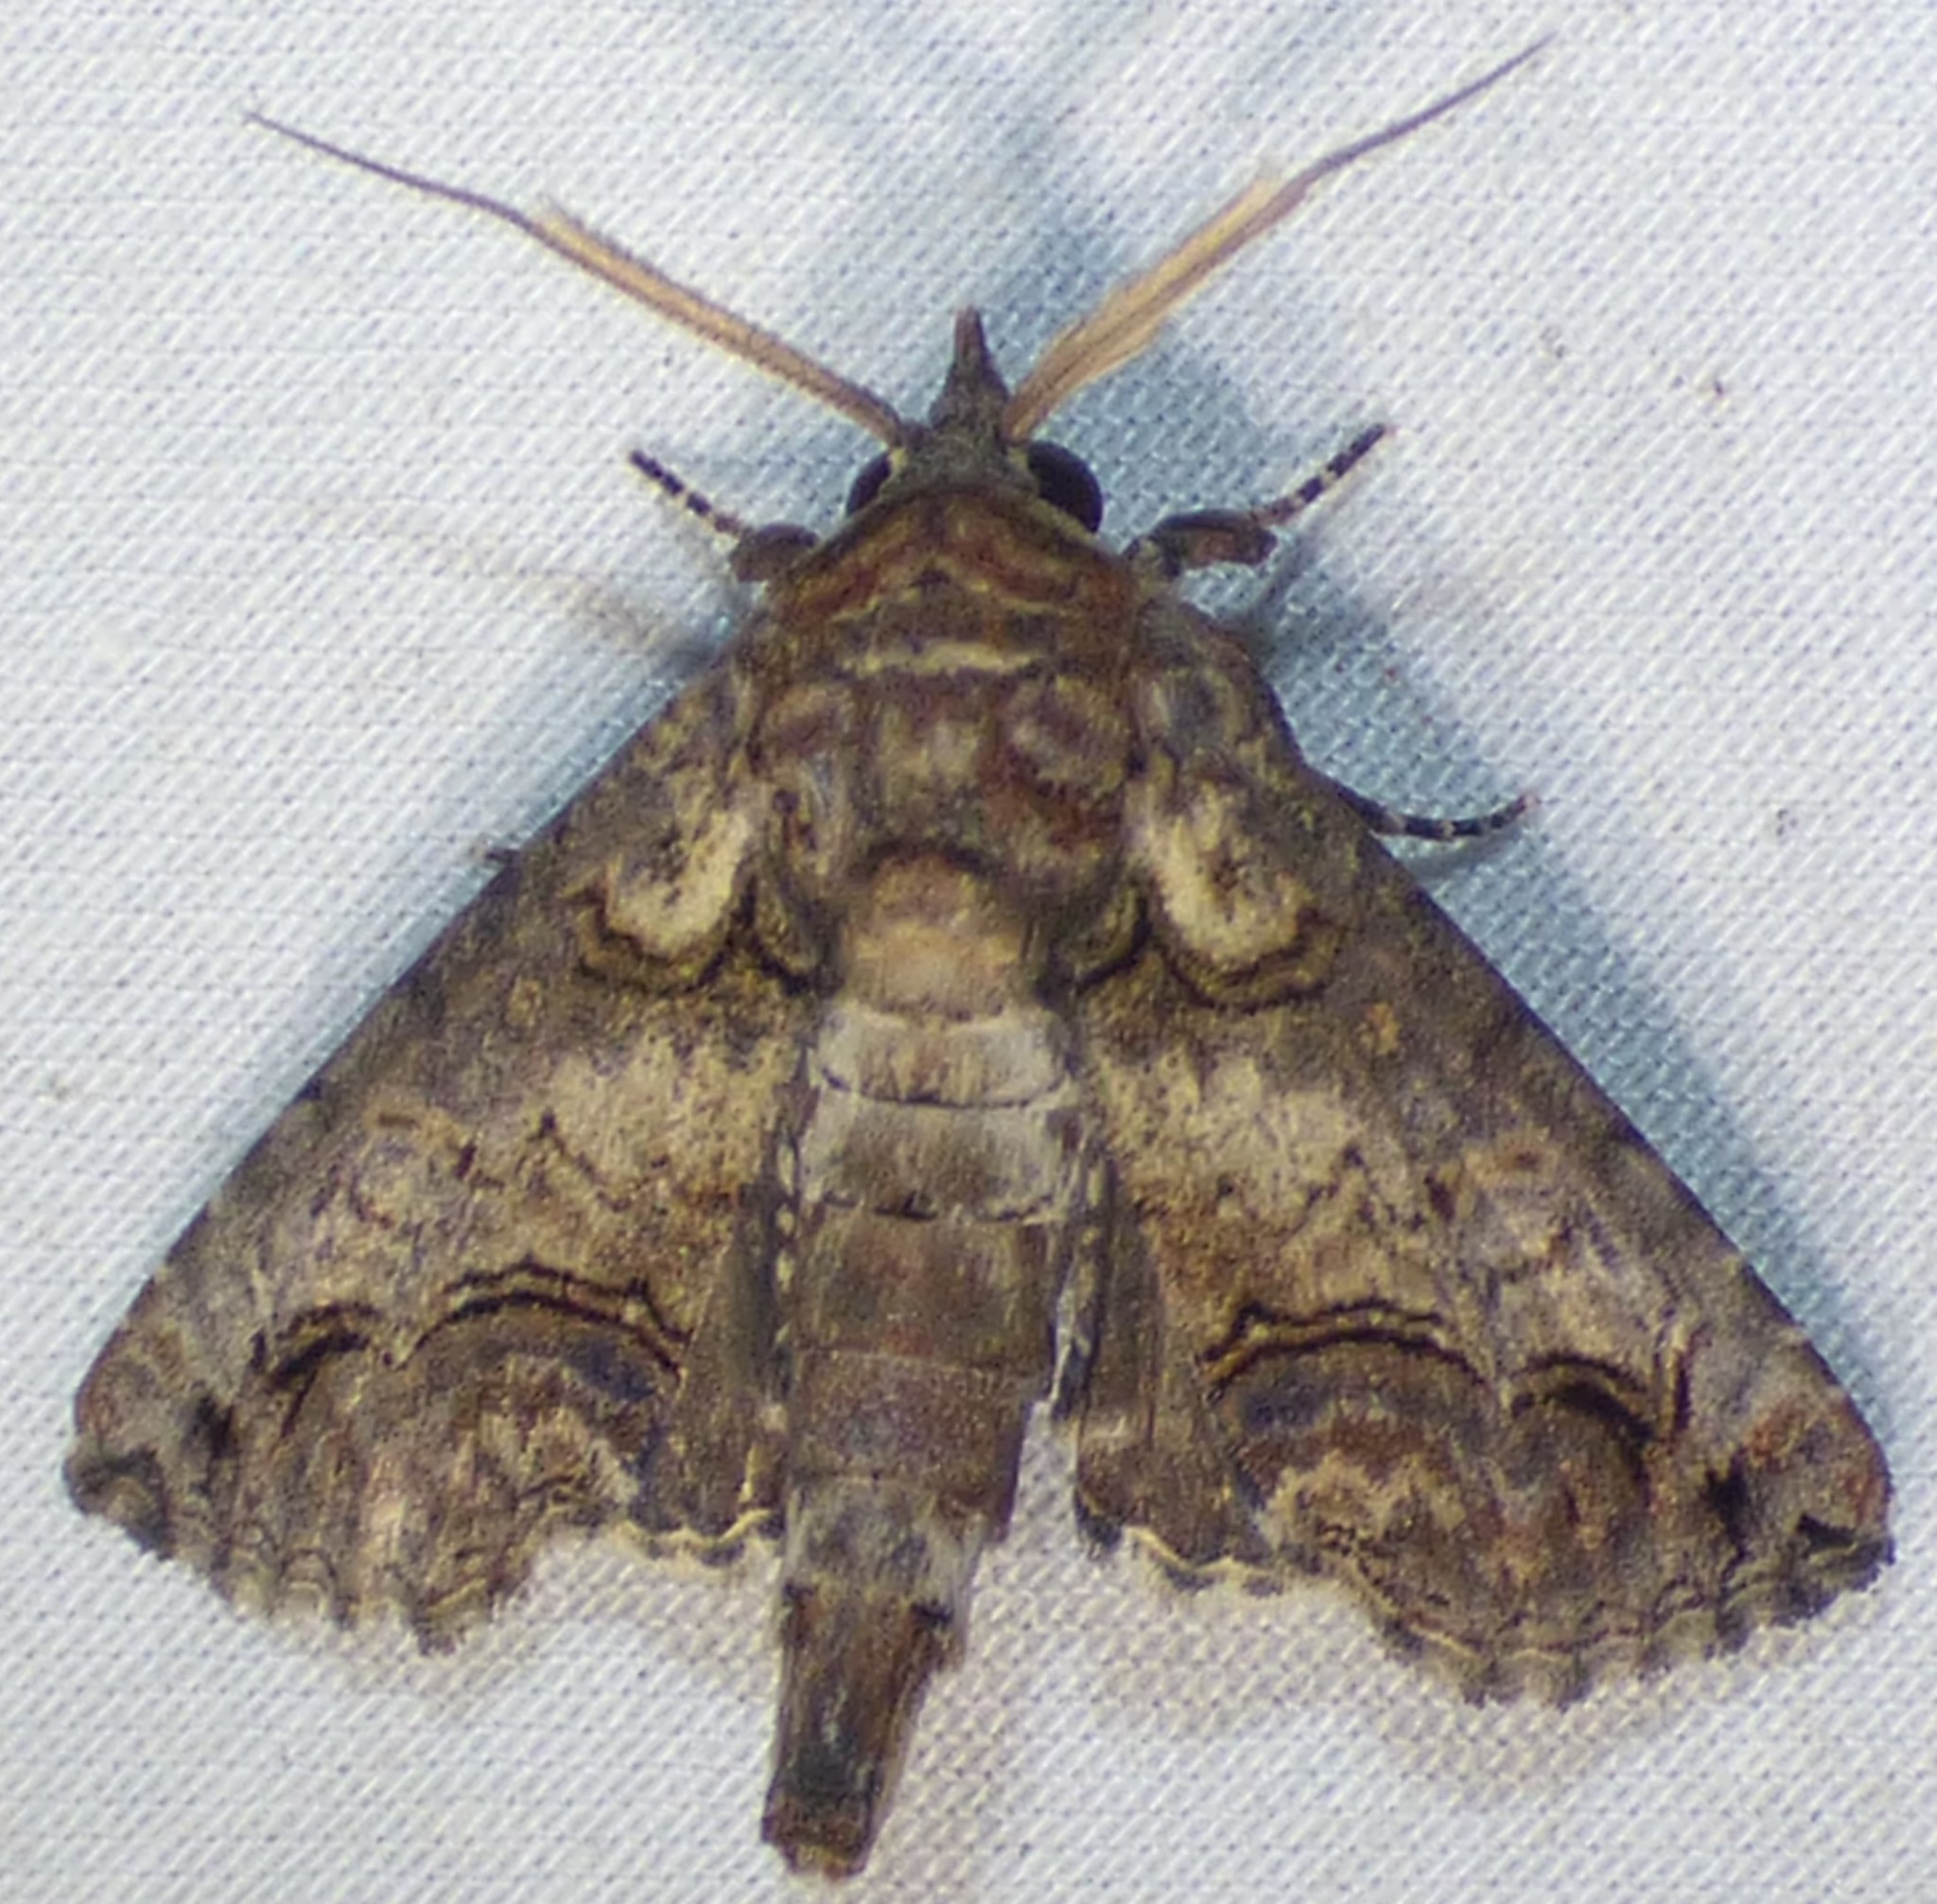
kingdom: Animalia
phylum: Arthropoda
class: Insecta
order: Lepidoptera
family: Euteliidae
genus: Paectes
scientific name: Paectes abrostoloides
